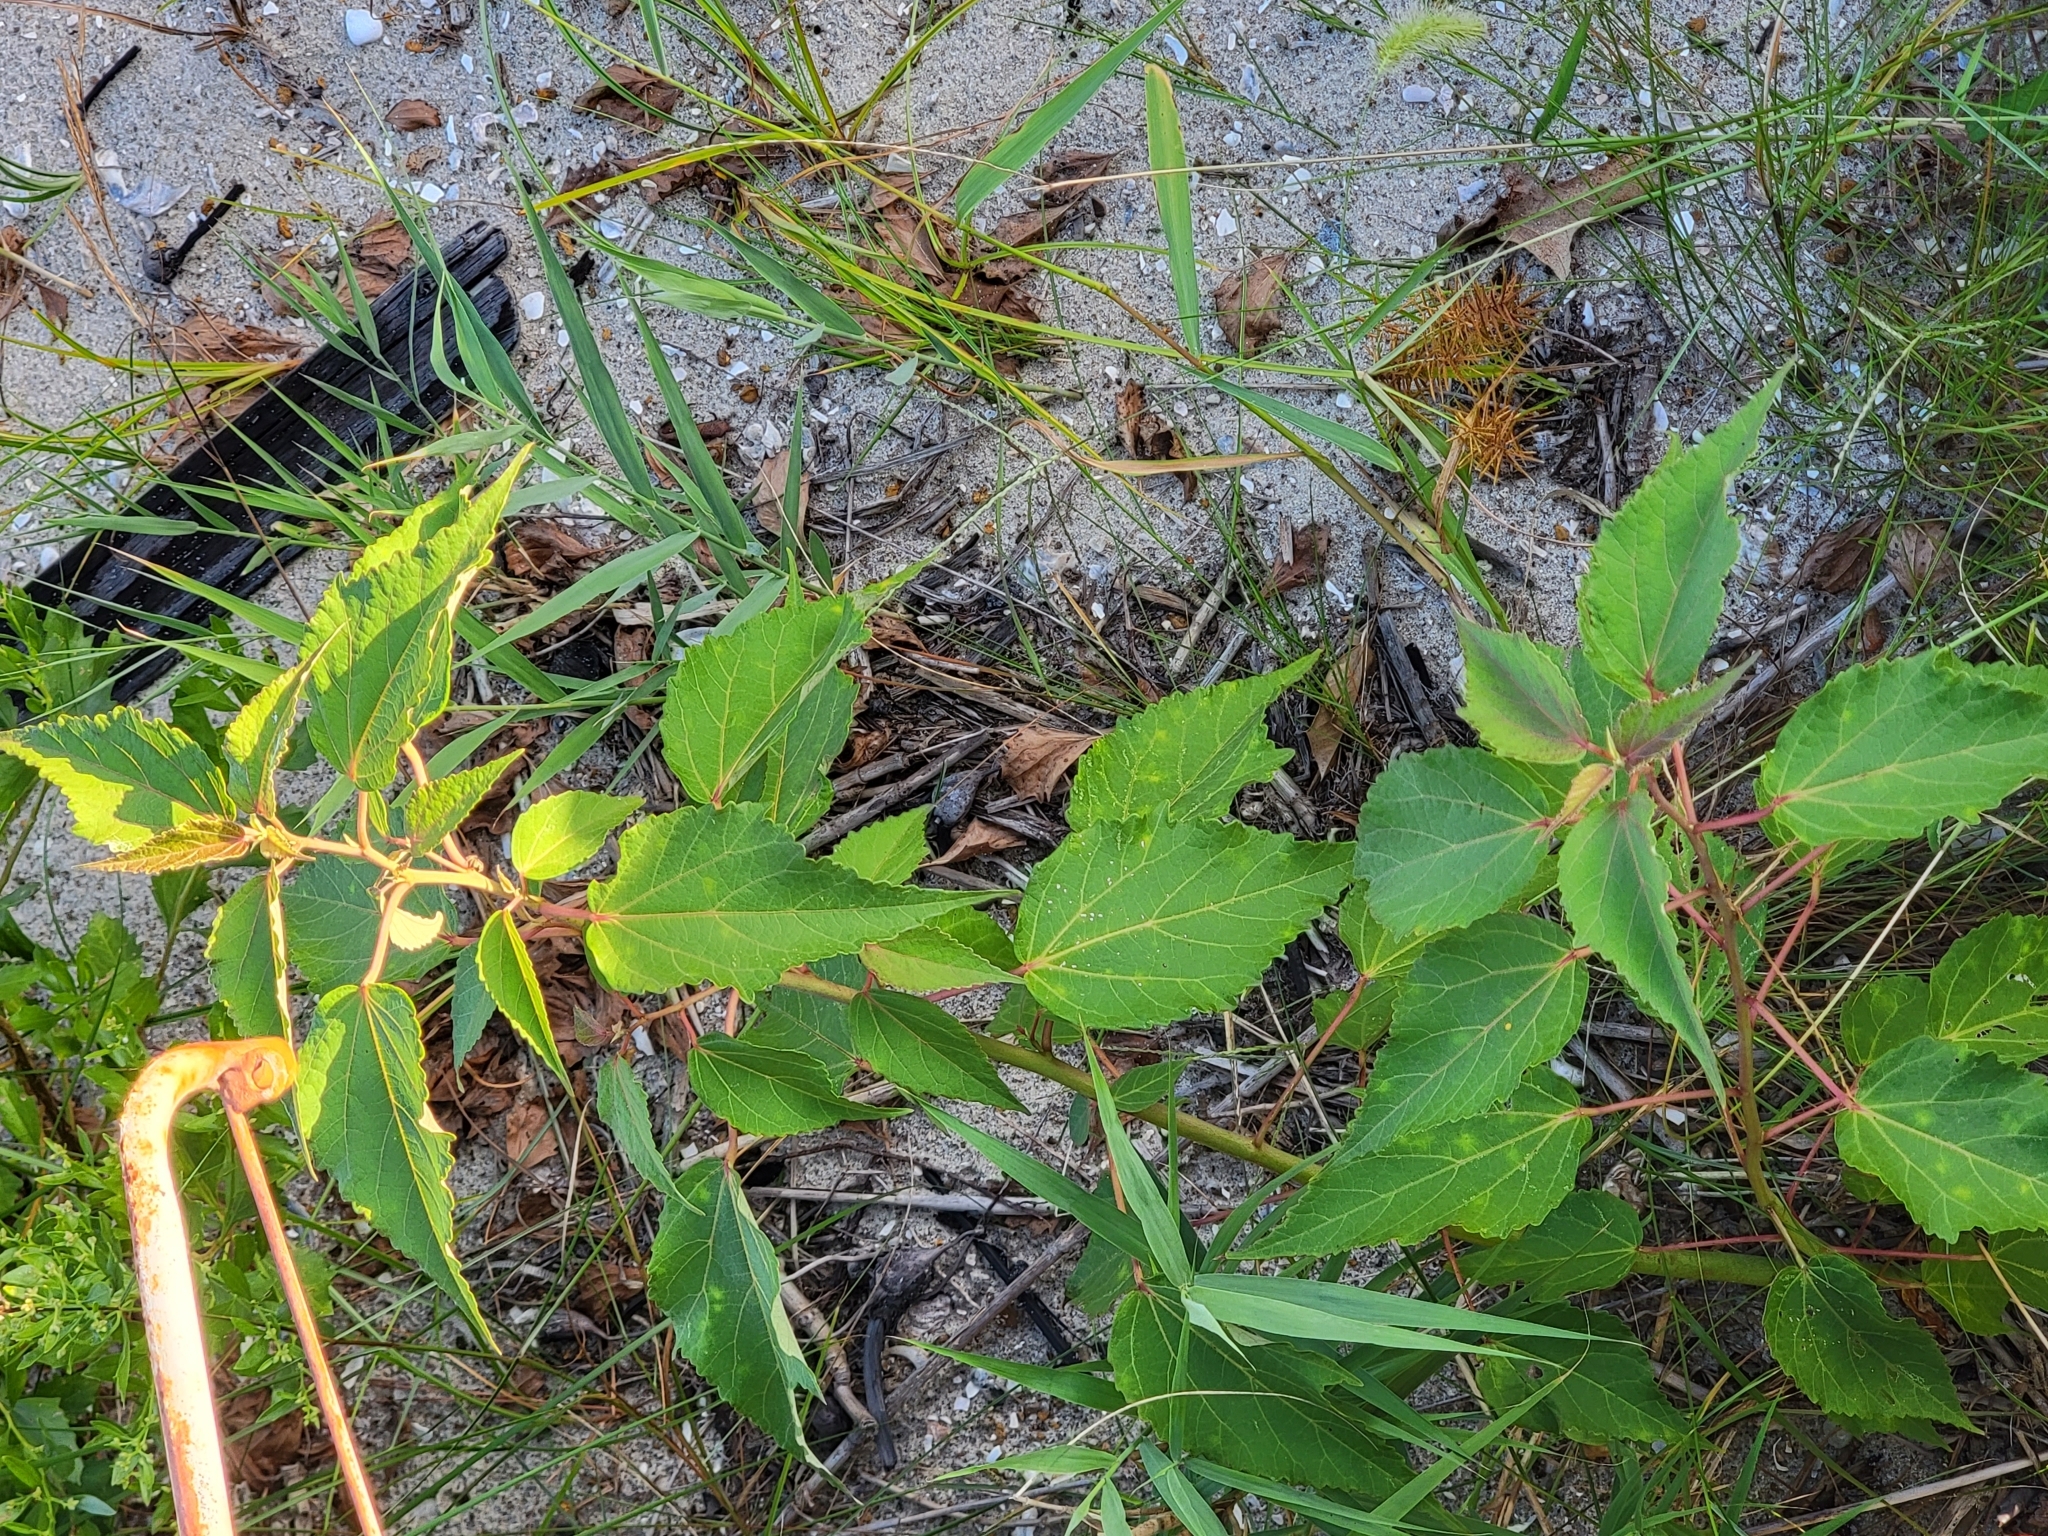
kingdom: Plantae
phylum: Tracheophyta
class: Magnoliopsida
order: Malvales
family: Malvaceae
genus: Hibiscus
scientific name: Hibiscus moscheutos
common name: Common rose-mallow
